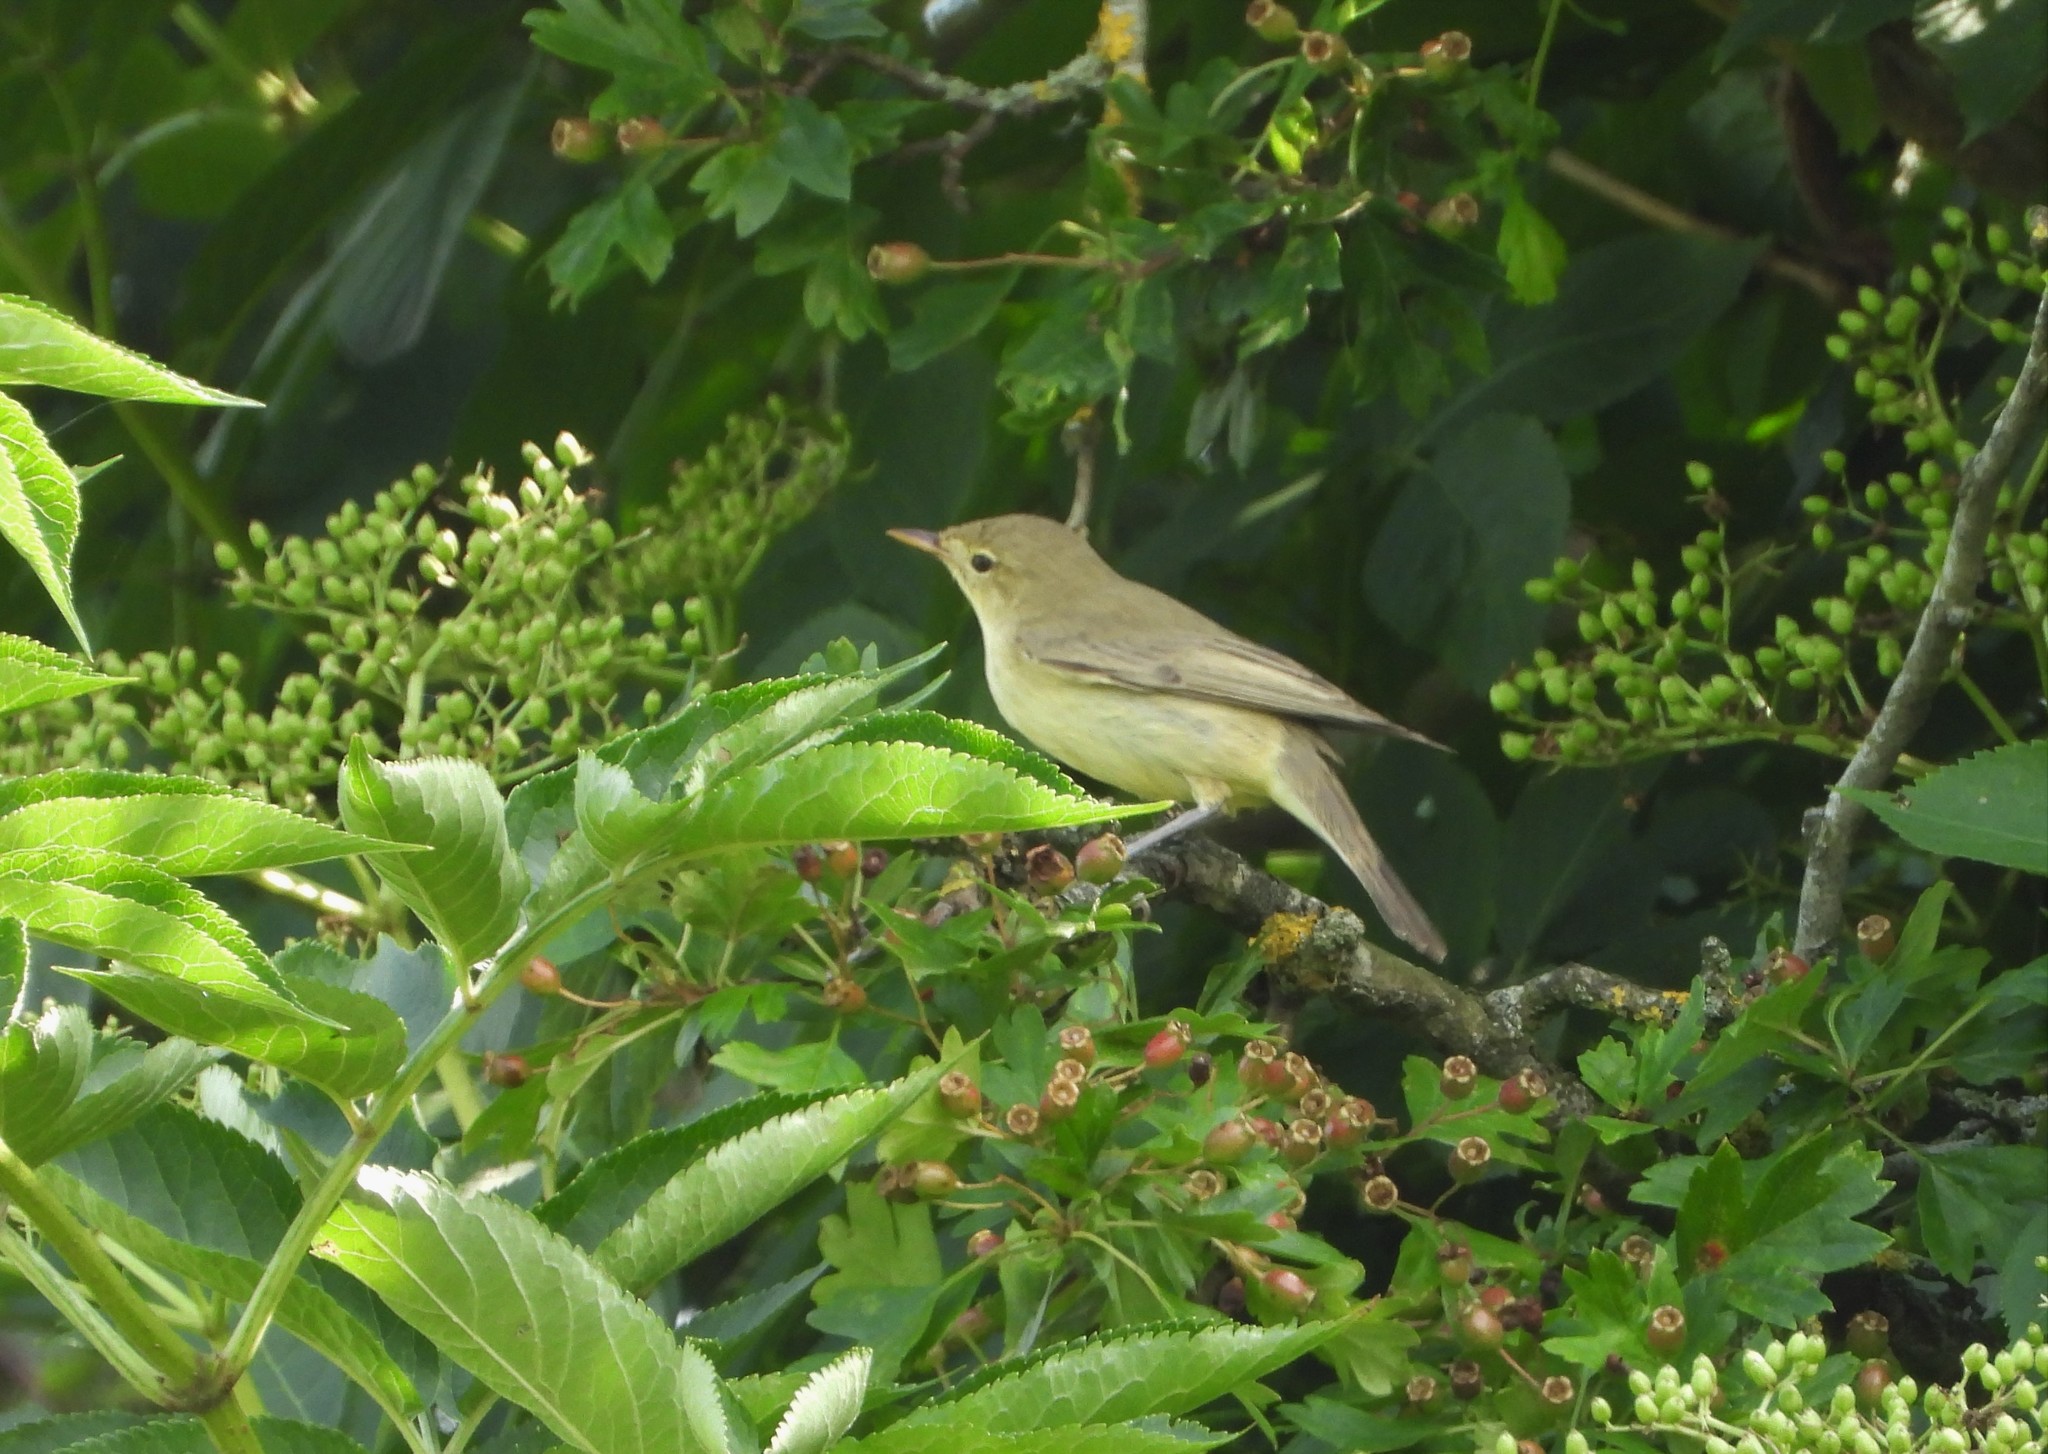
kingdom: Animalia
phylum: Chordata
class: Aves
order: Passeriformes
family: Acrocephalidae
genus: Hippolais
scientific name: Hippolais icterina
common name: Icterine warbler
